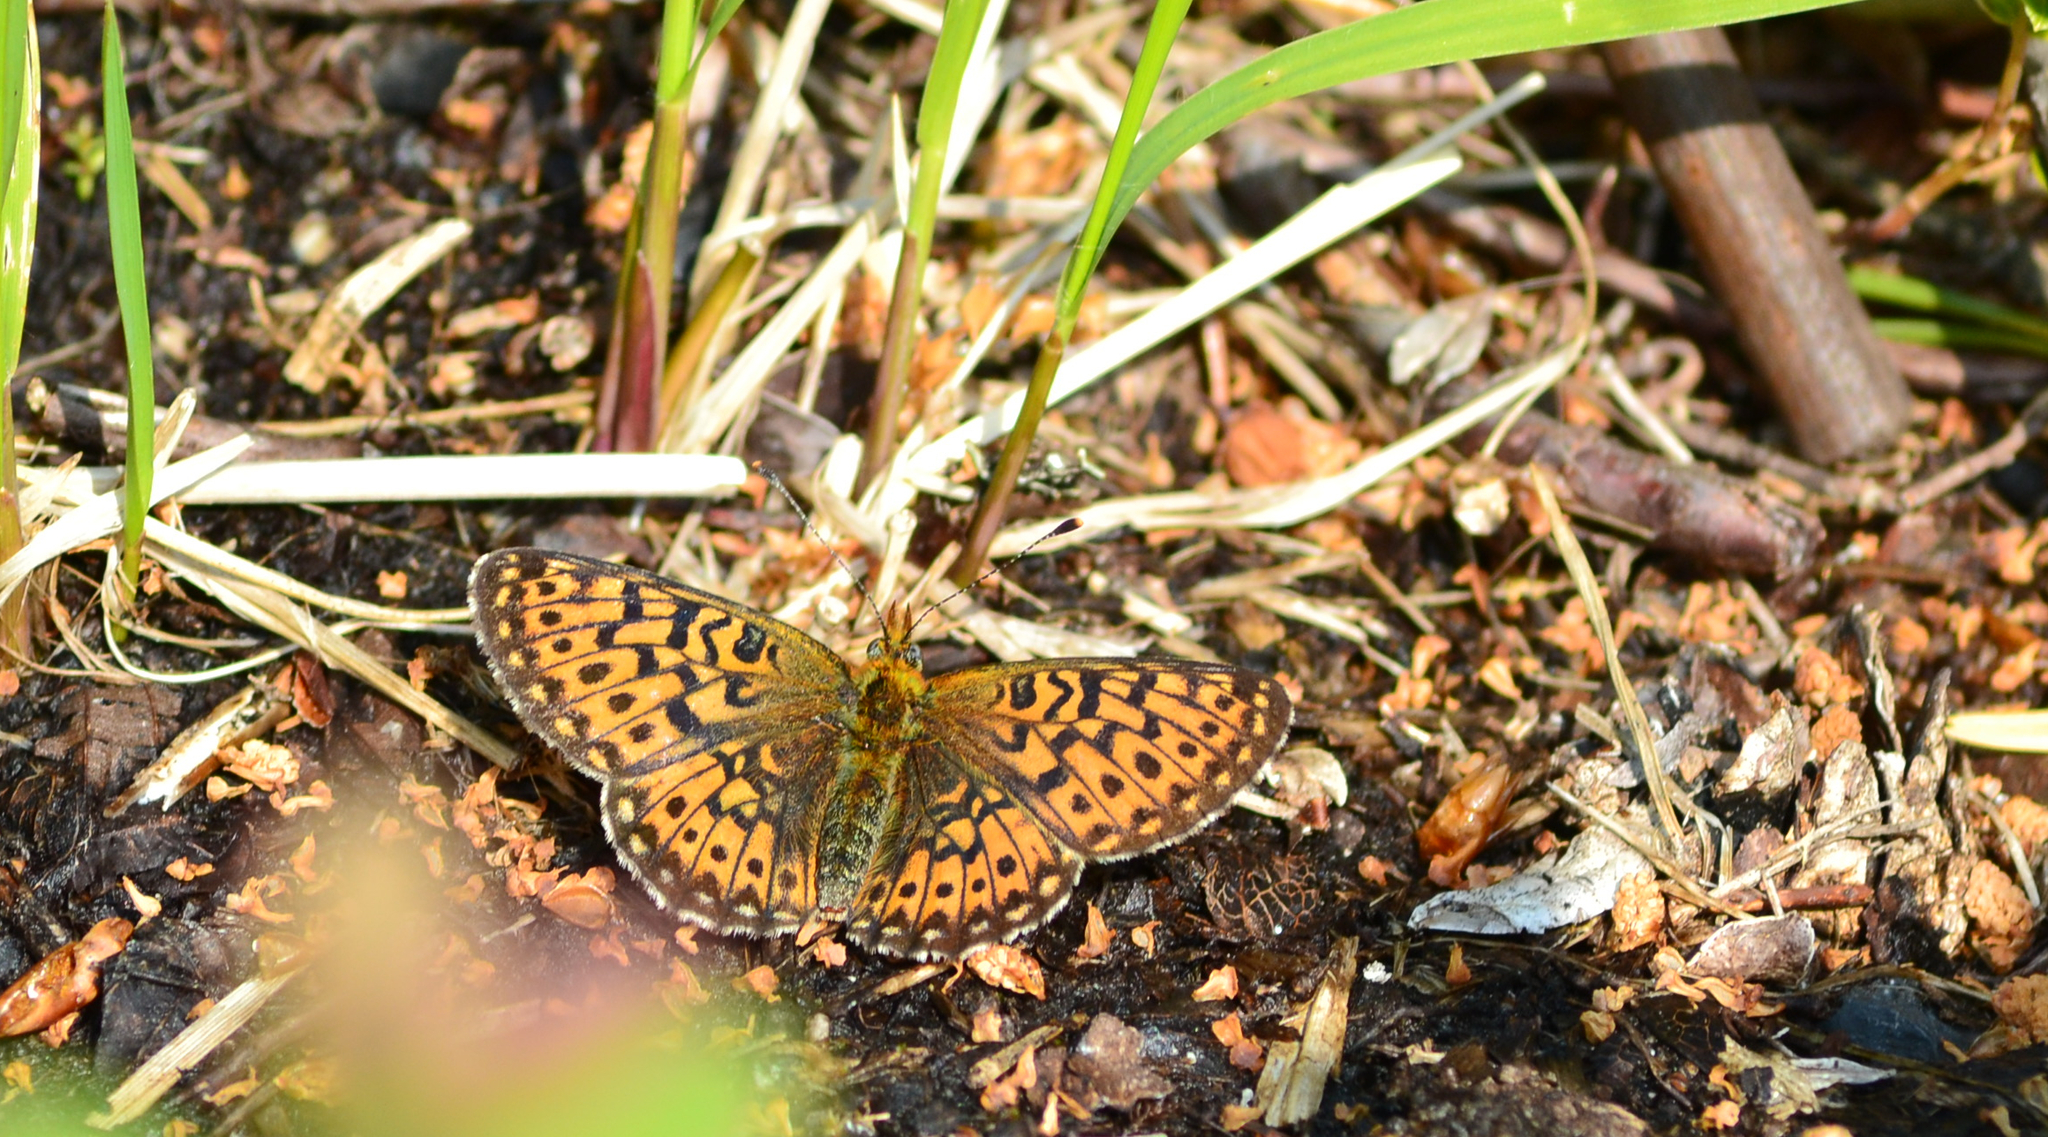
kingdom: Animalia
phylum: Arthropoda
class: Insecta
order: Lepidoptera
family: Nymphalidae
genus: Clossiana
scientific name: Clossiana euphrosyne
